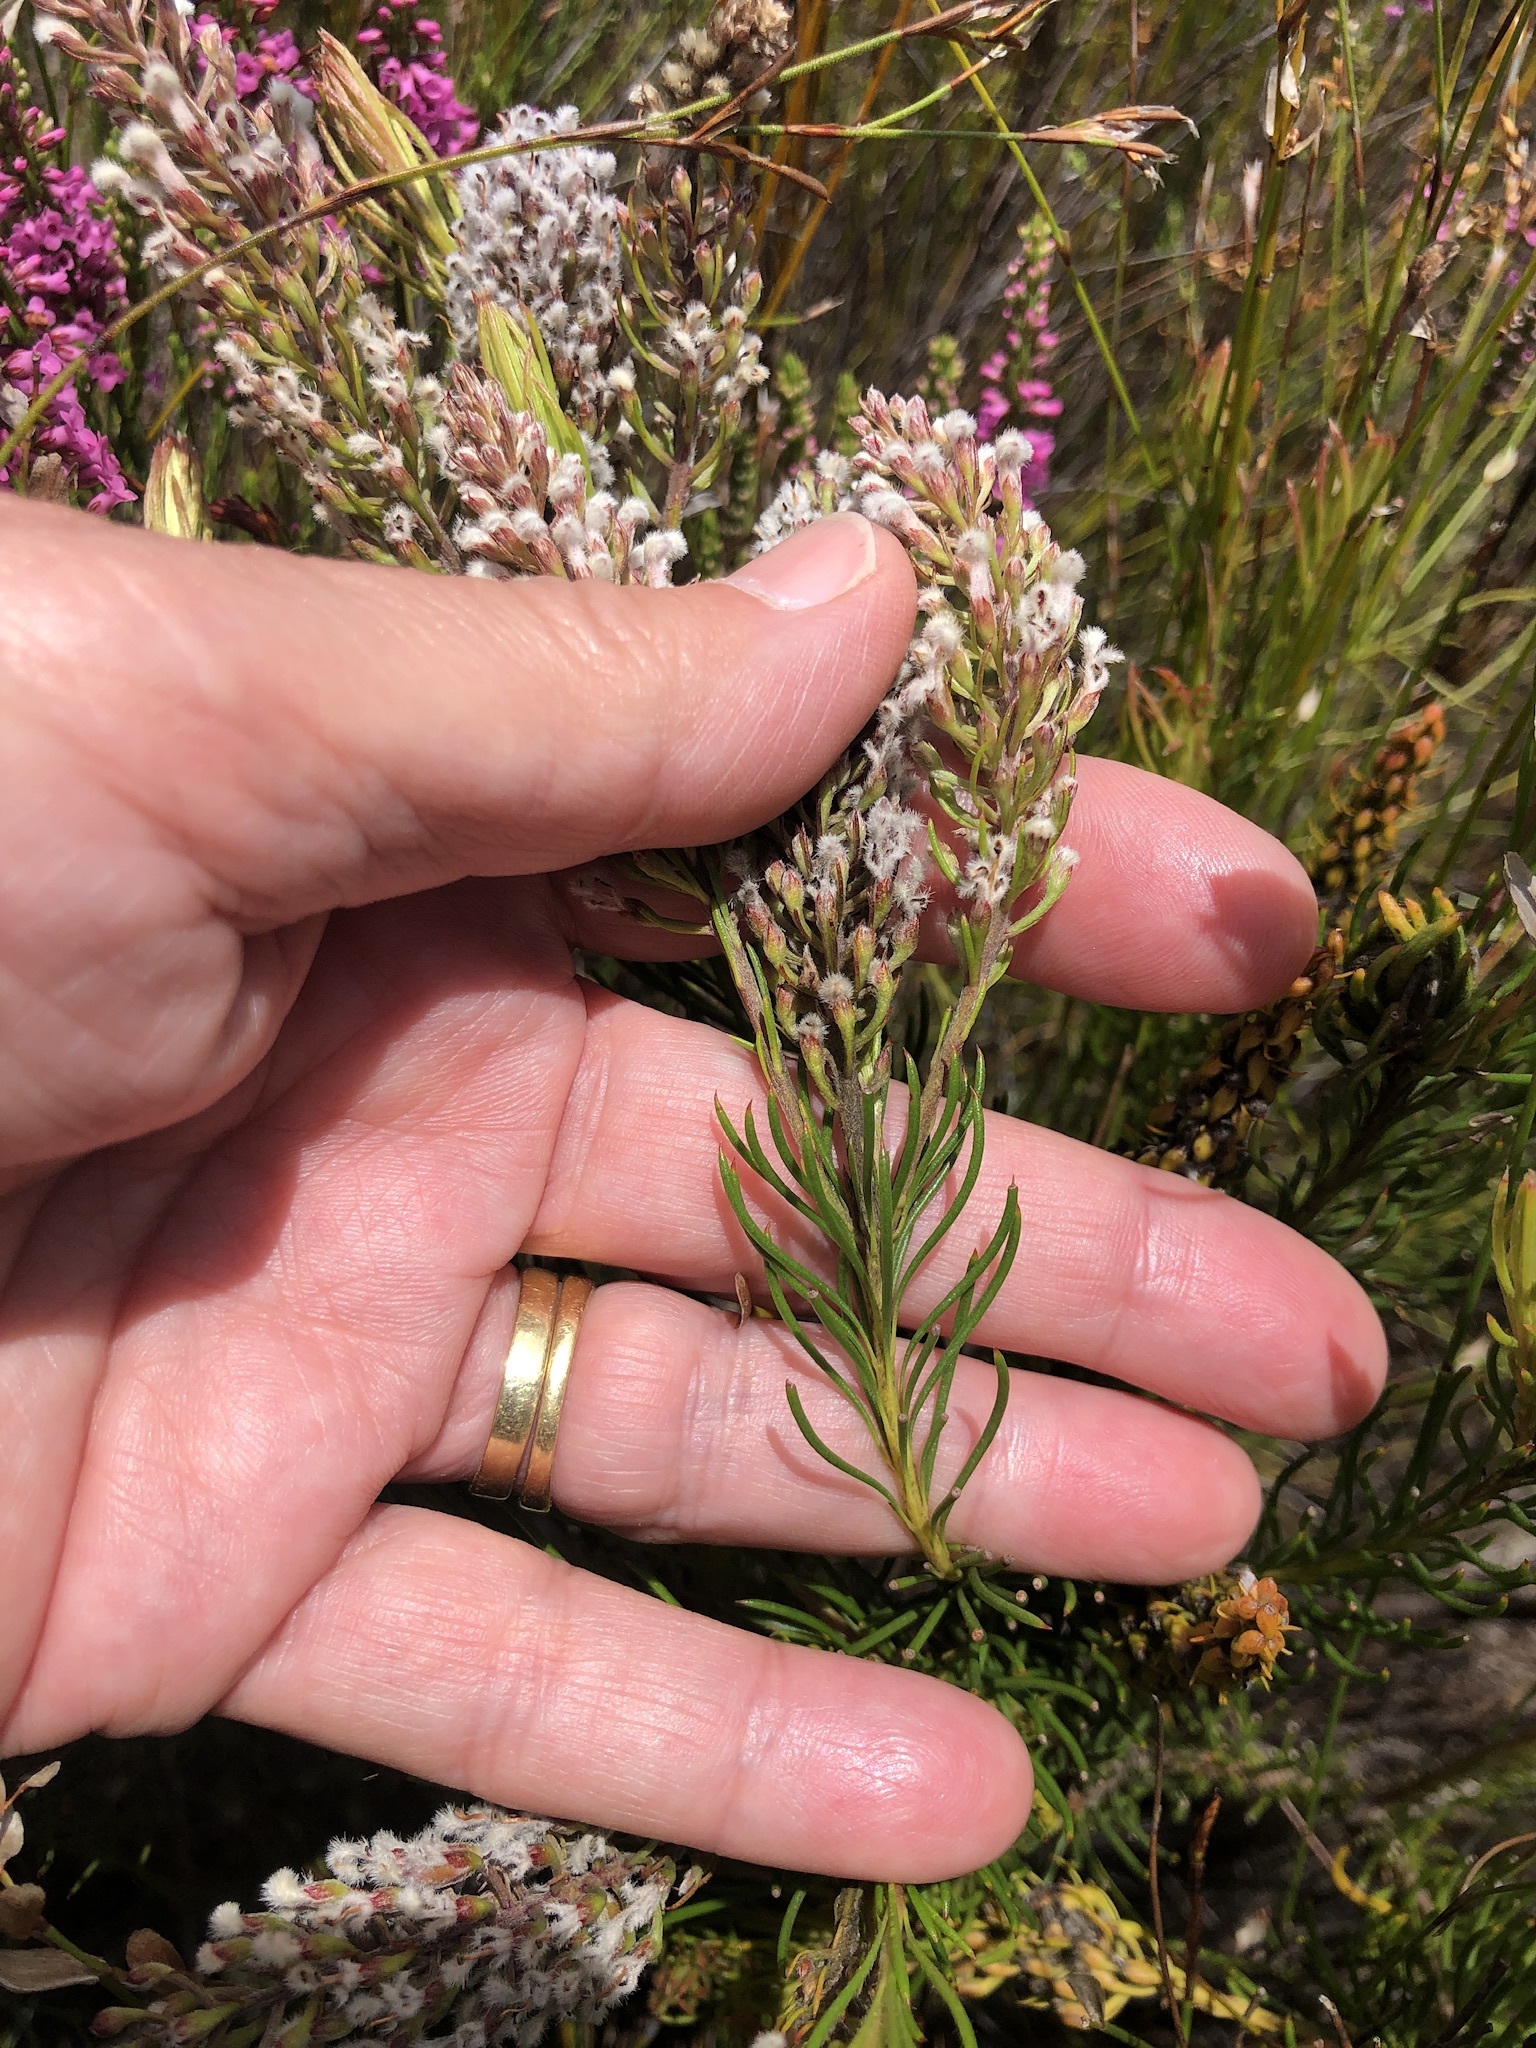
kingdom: Plantae
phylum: Tracheophyta
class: Magnoliopsida
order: Proteales
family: Proteaceae
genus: Spatalla
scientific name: Spatalla curvifolia
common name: White-stalked spoon
